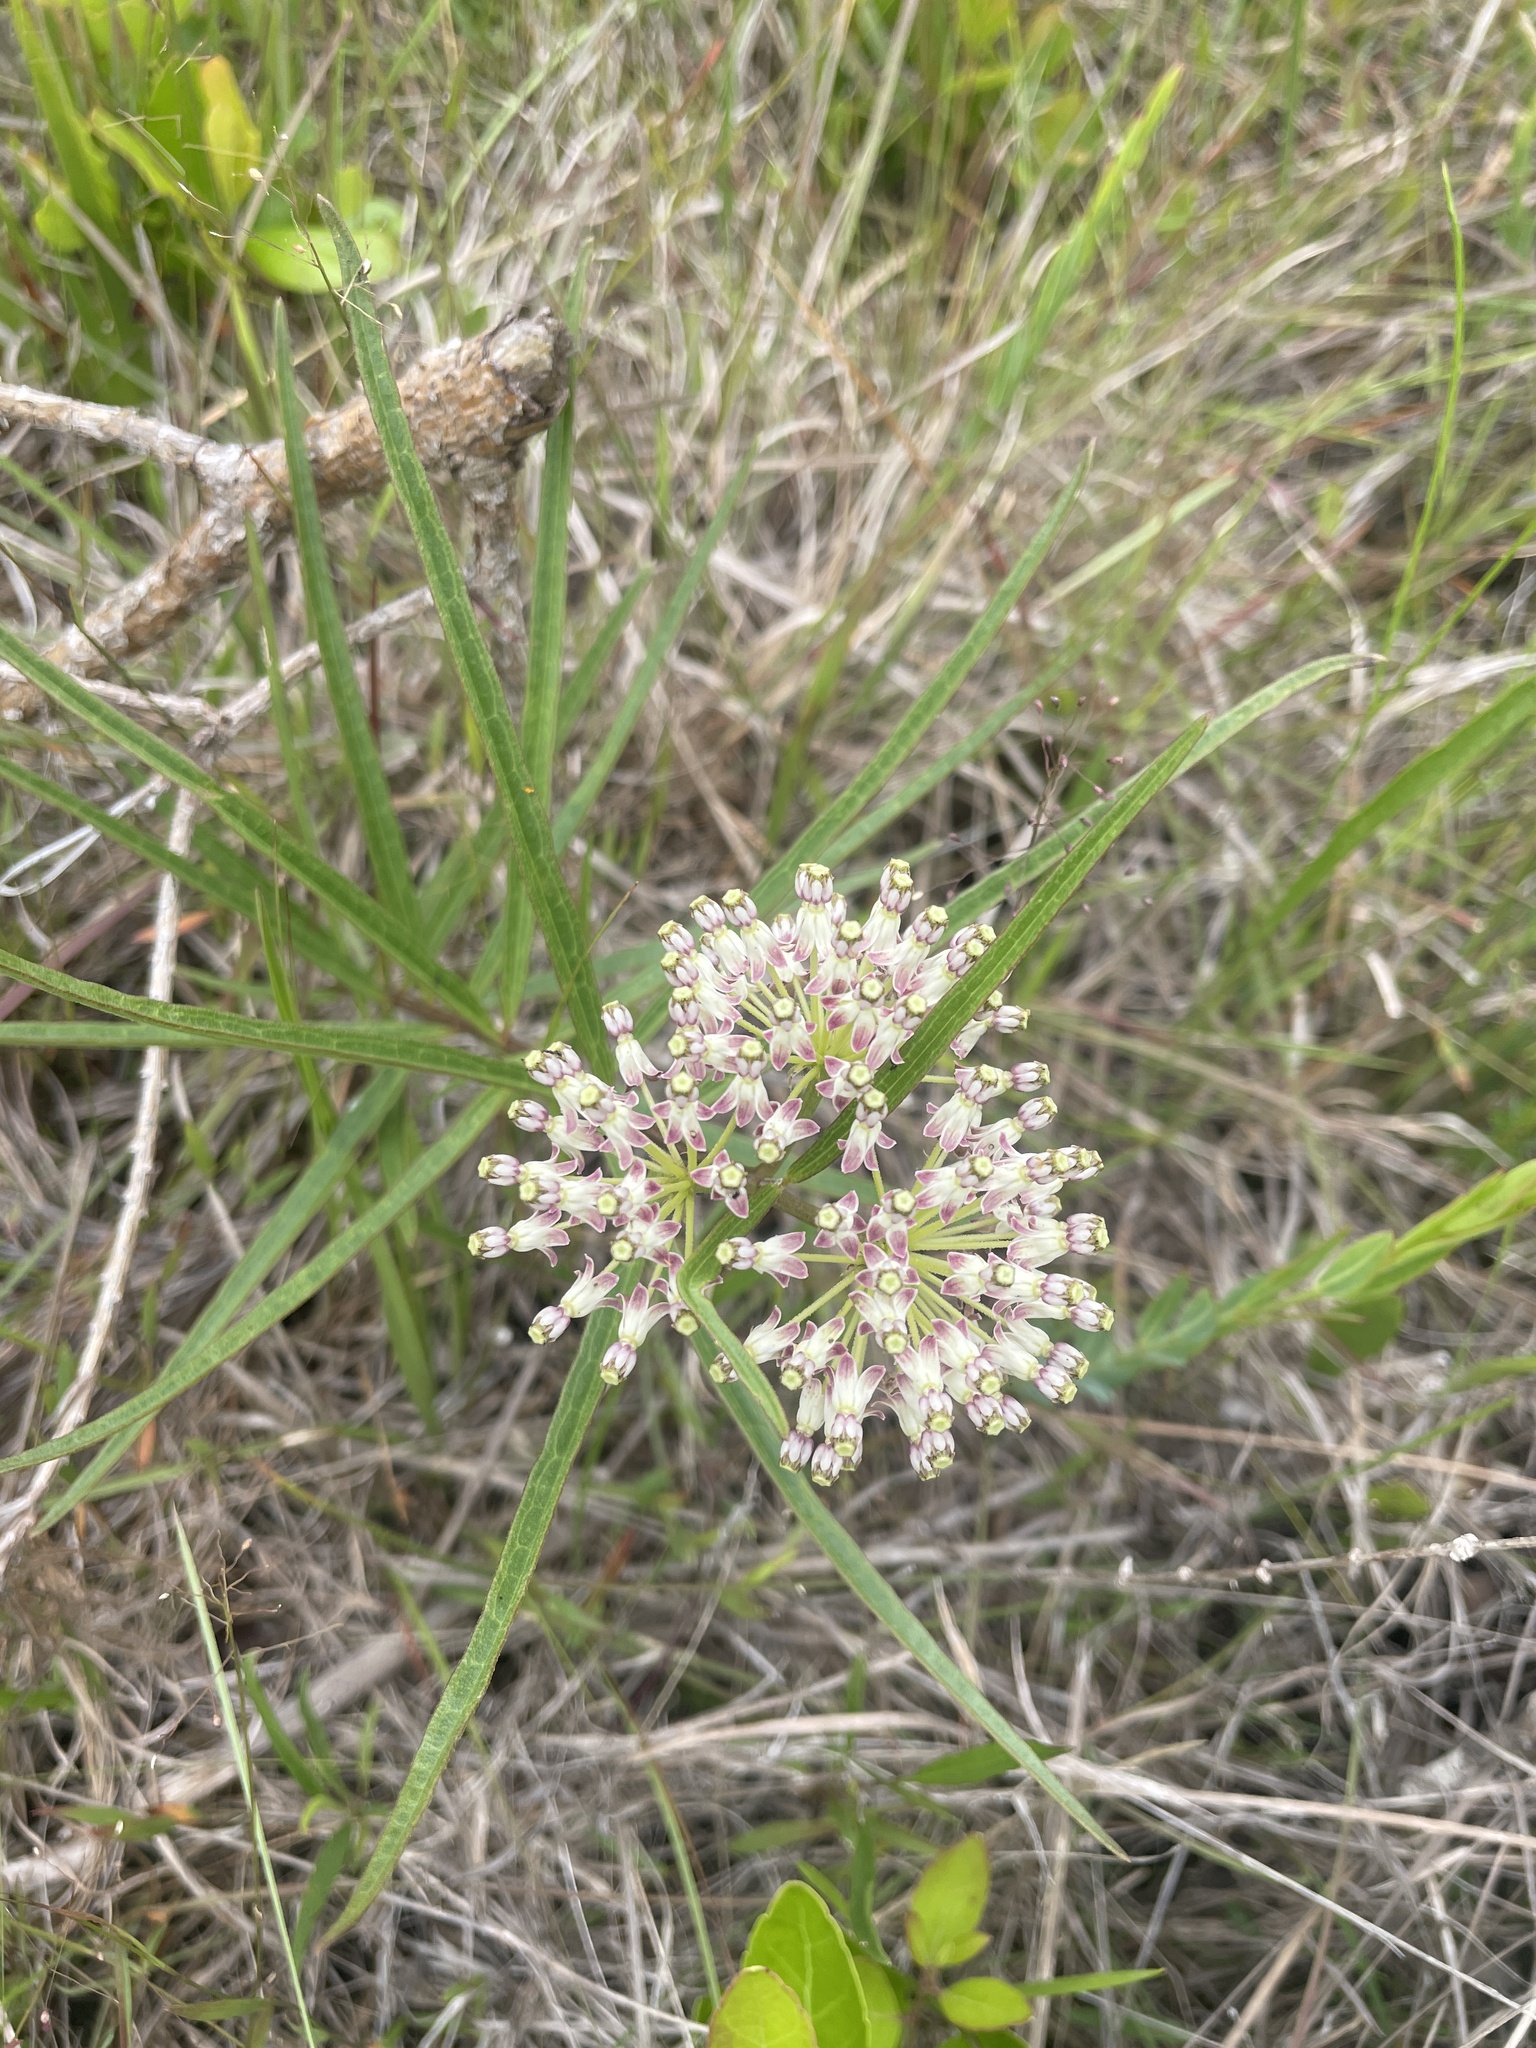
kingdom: Plantae
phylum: Tracheophyta
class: Magnoliopsida
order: Gentianales
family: Apocynaceae
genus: Asclepias
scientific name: Asclepias longifolia
